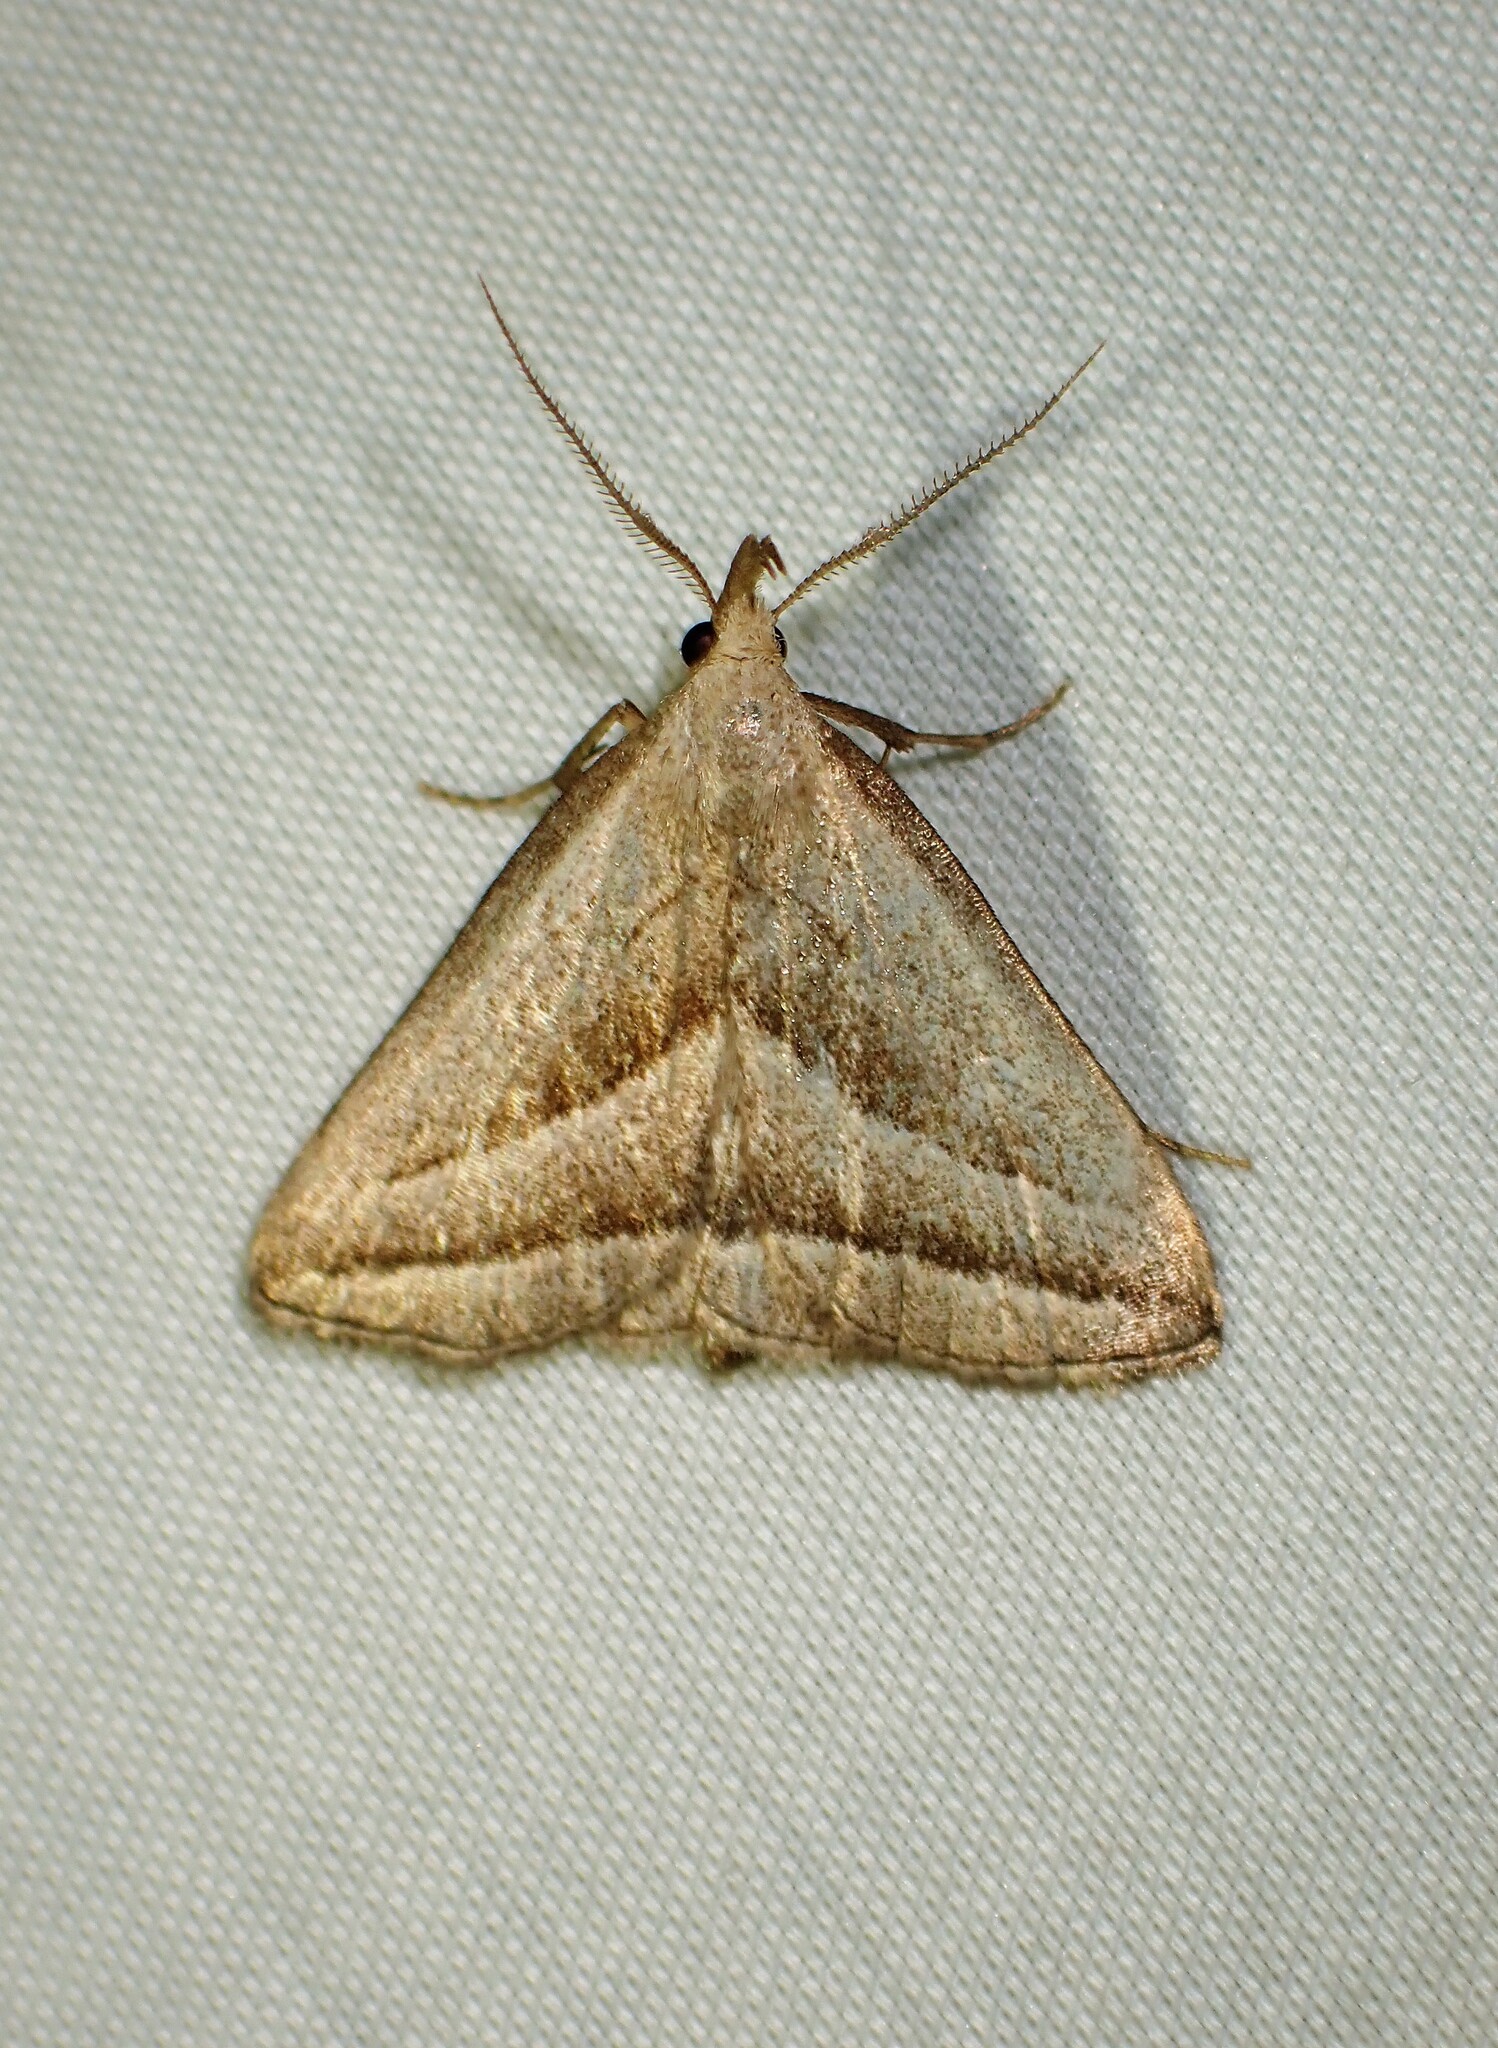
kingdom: Animalia
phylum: Arthropoda
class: Insecta
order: Lepidoptera
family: Erebidae
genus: Macrochilo
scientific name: Macrochilo absorptalis
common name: Slant-lined owlet
